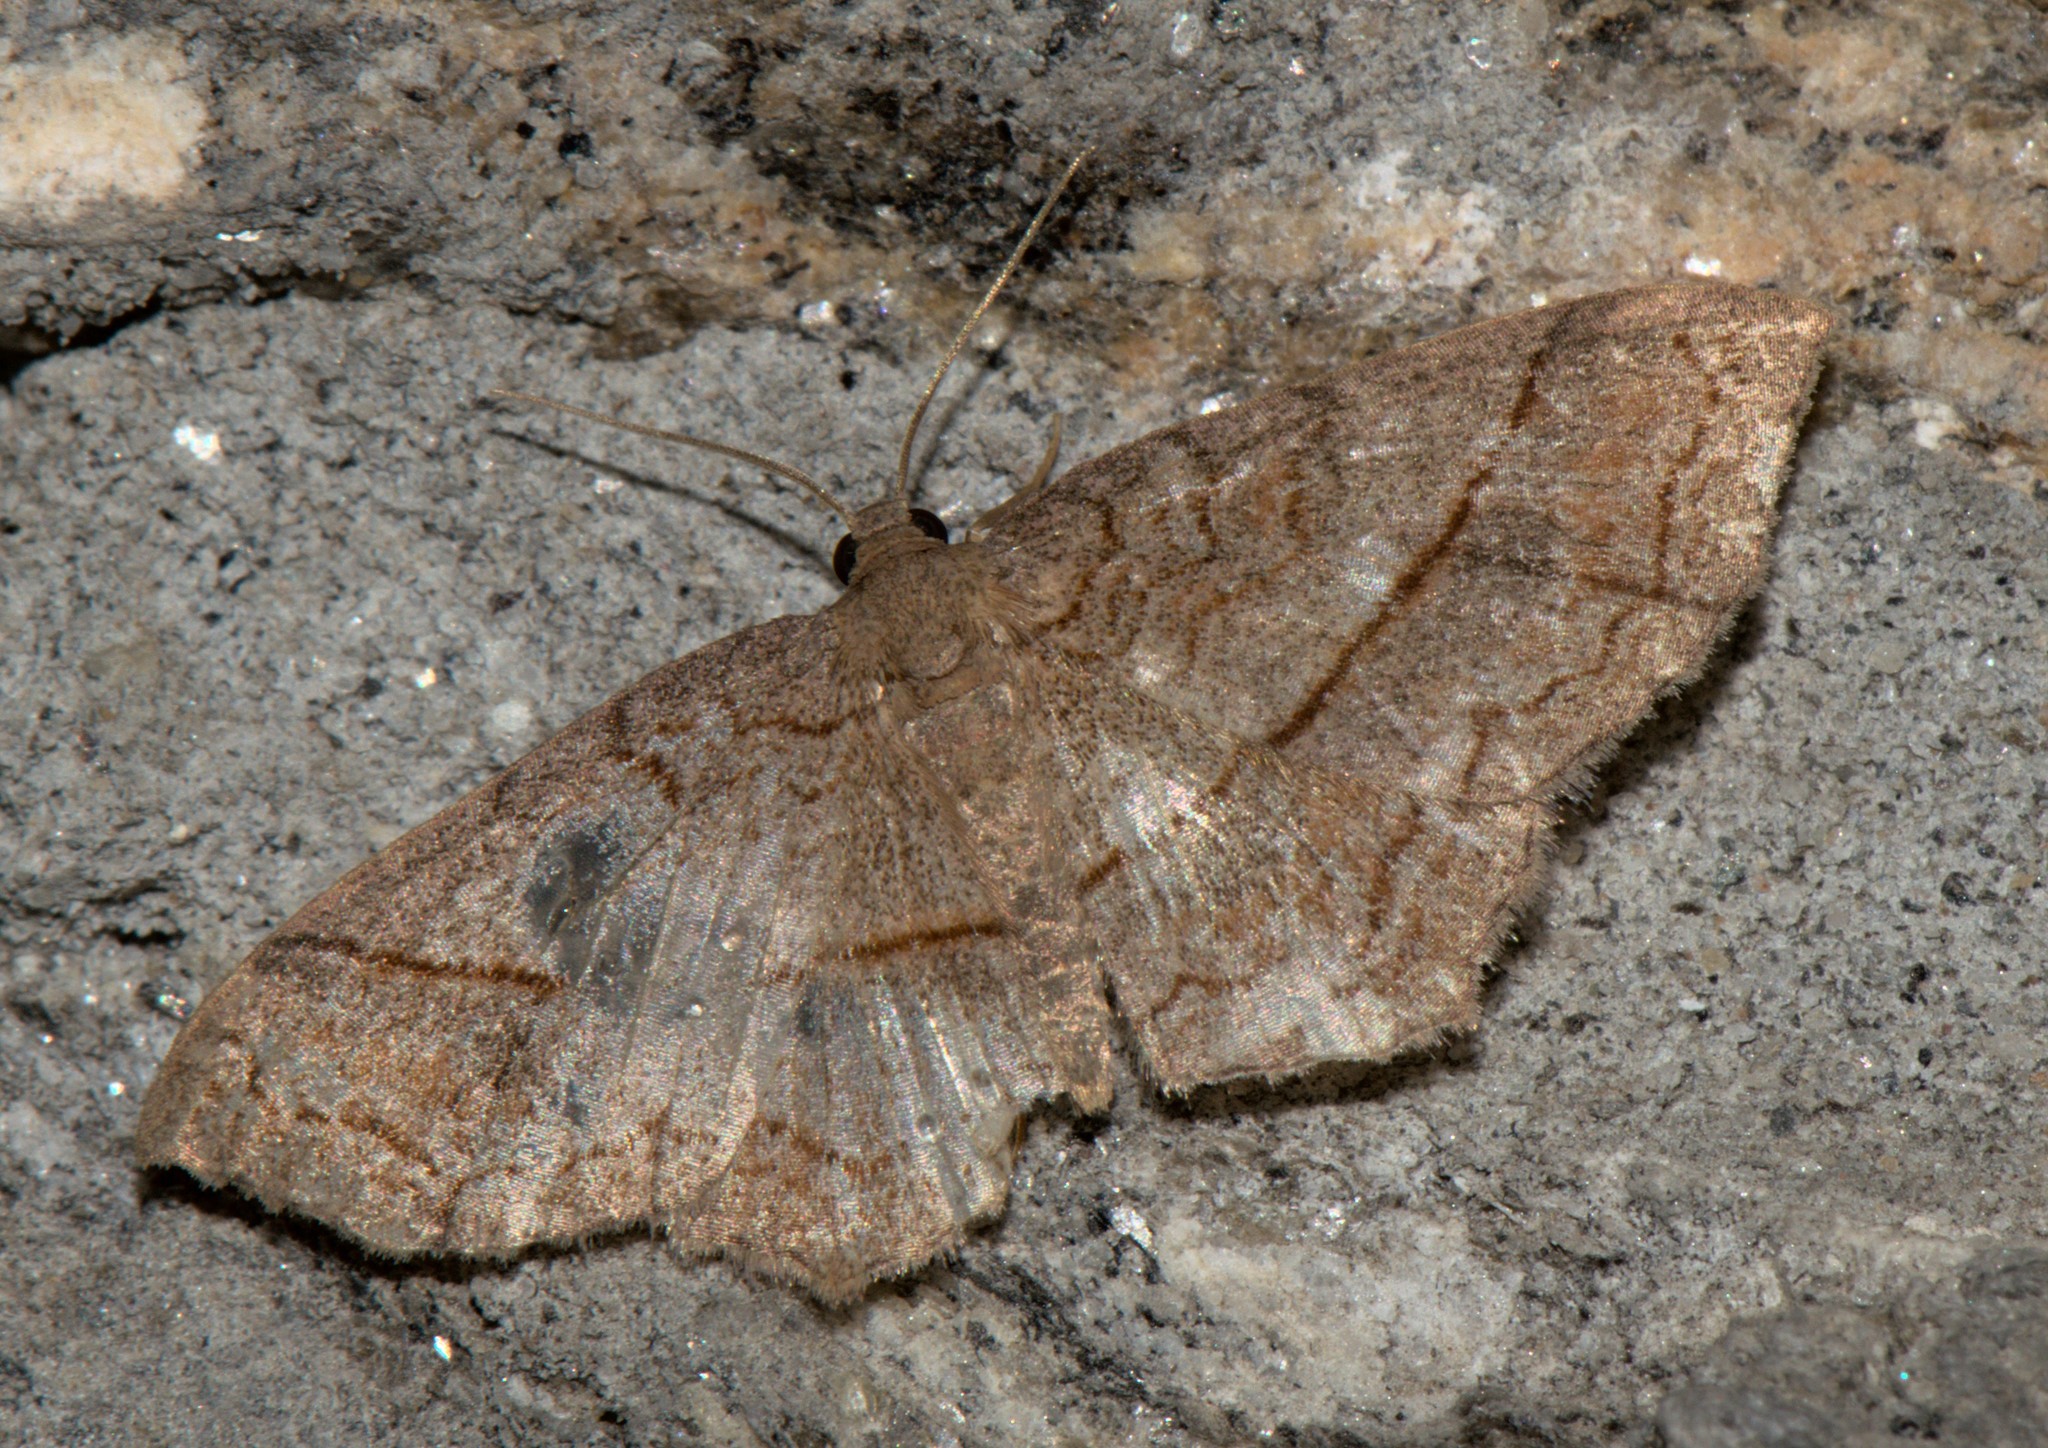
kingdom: Animalia
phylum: Arthropoda
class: Insecta
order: Lepidoptera
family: Geometridae
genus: Hydrelia
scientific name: Hydrelia sericea
